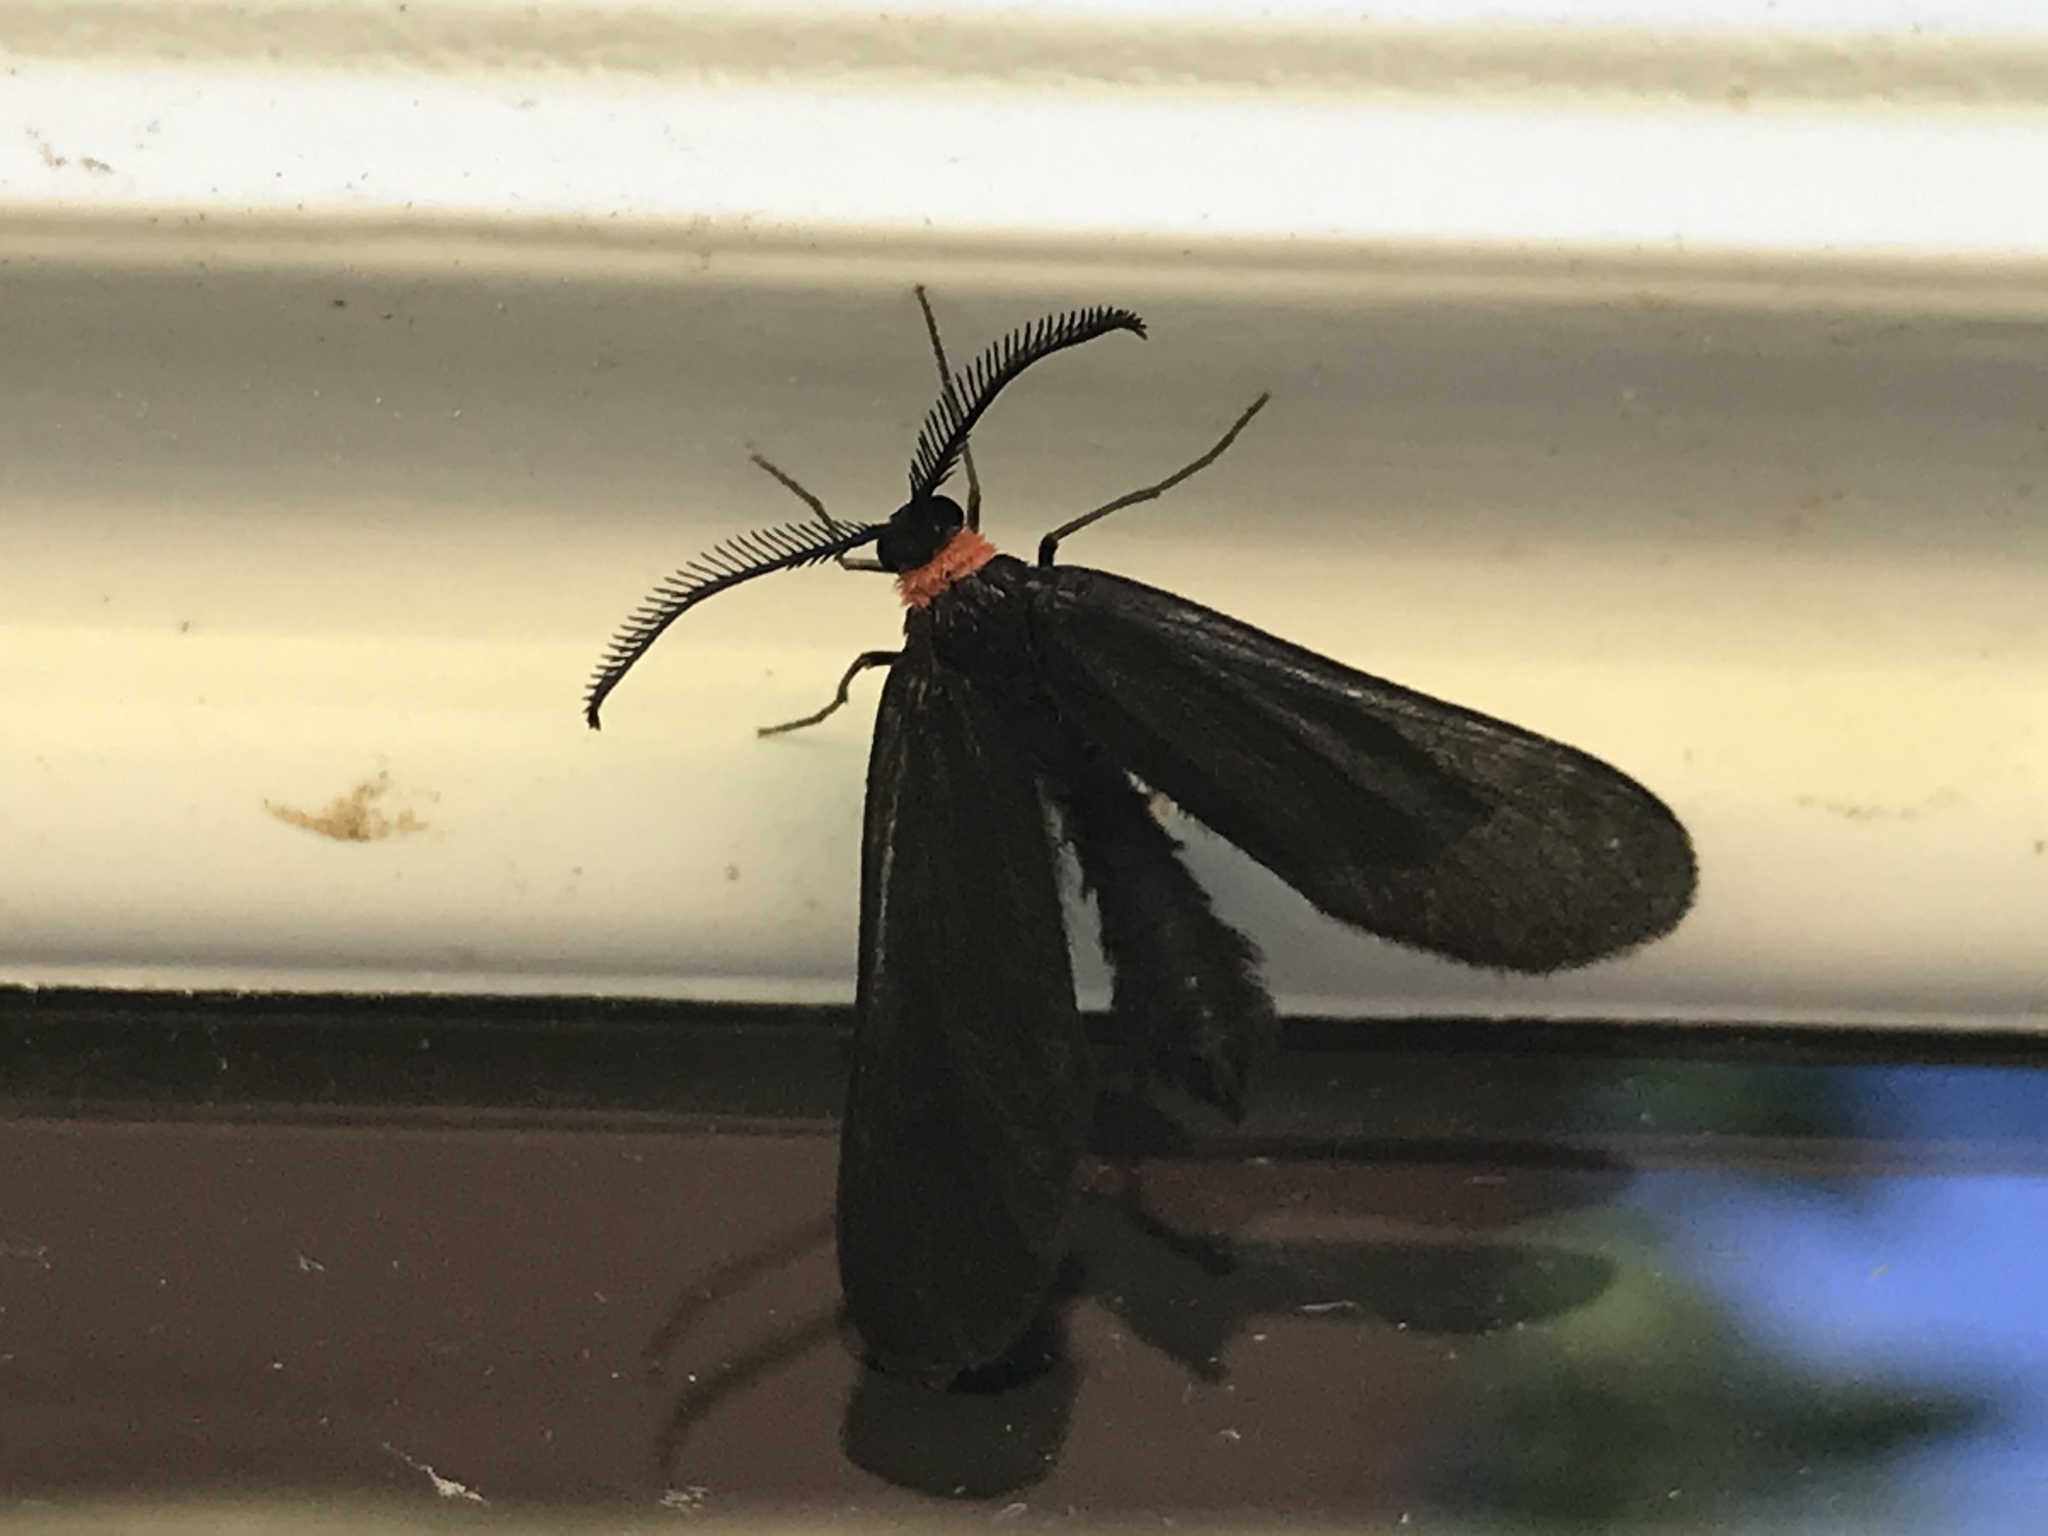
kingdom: Animalia
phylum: Arthropoda
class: Insecta
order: Lepidoptera
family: Zygaenidae
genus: Harrisina
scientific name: Harrisina americana
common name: Grapeleaf skeletonizer moth
